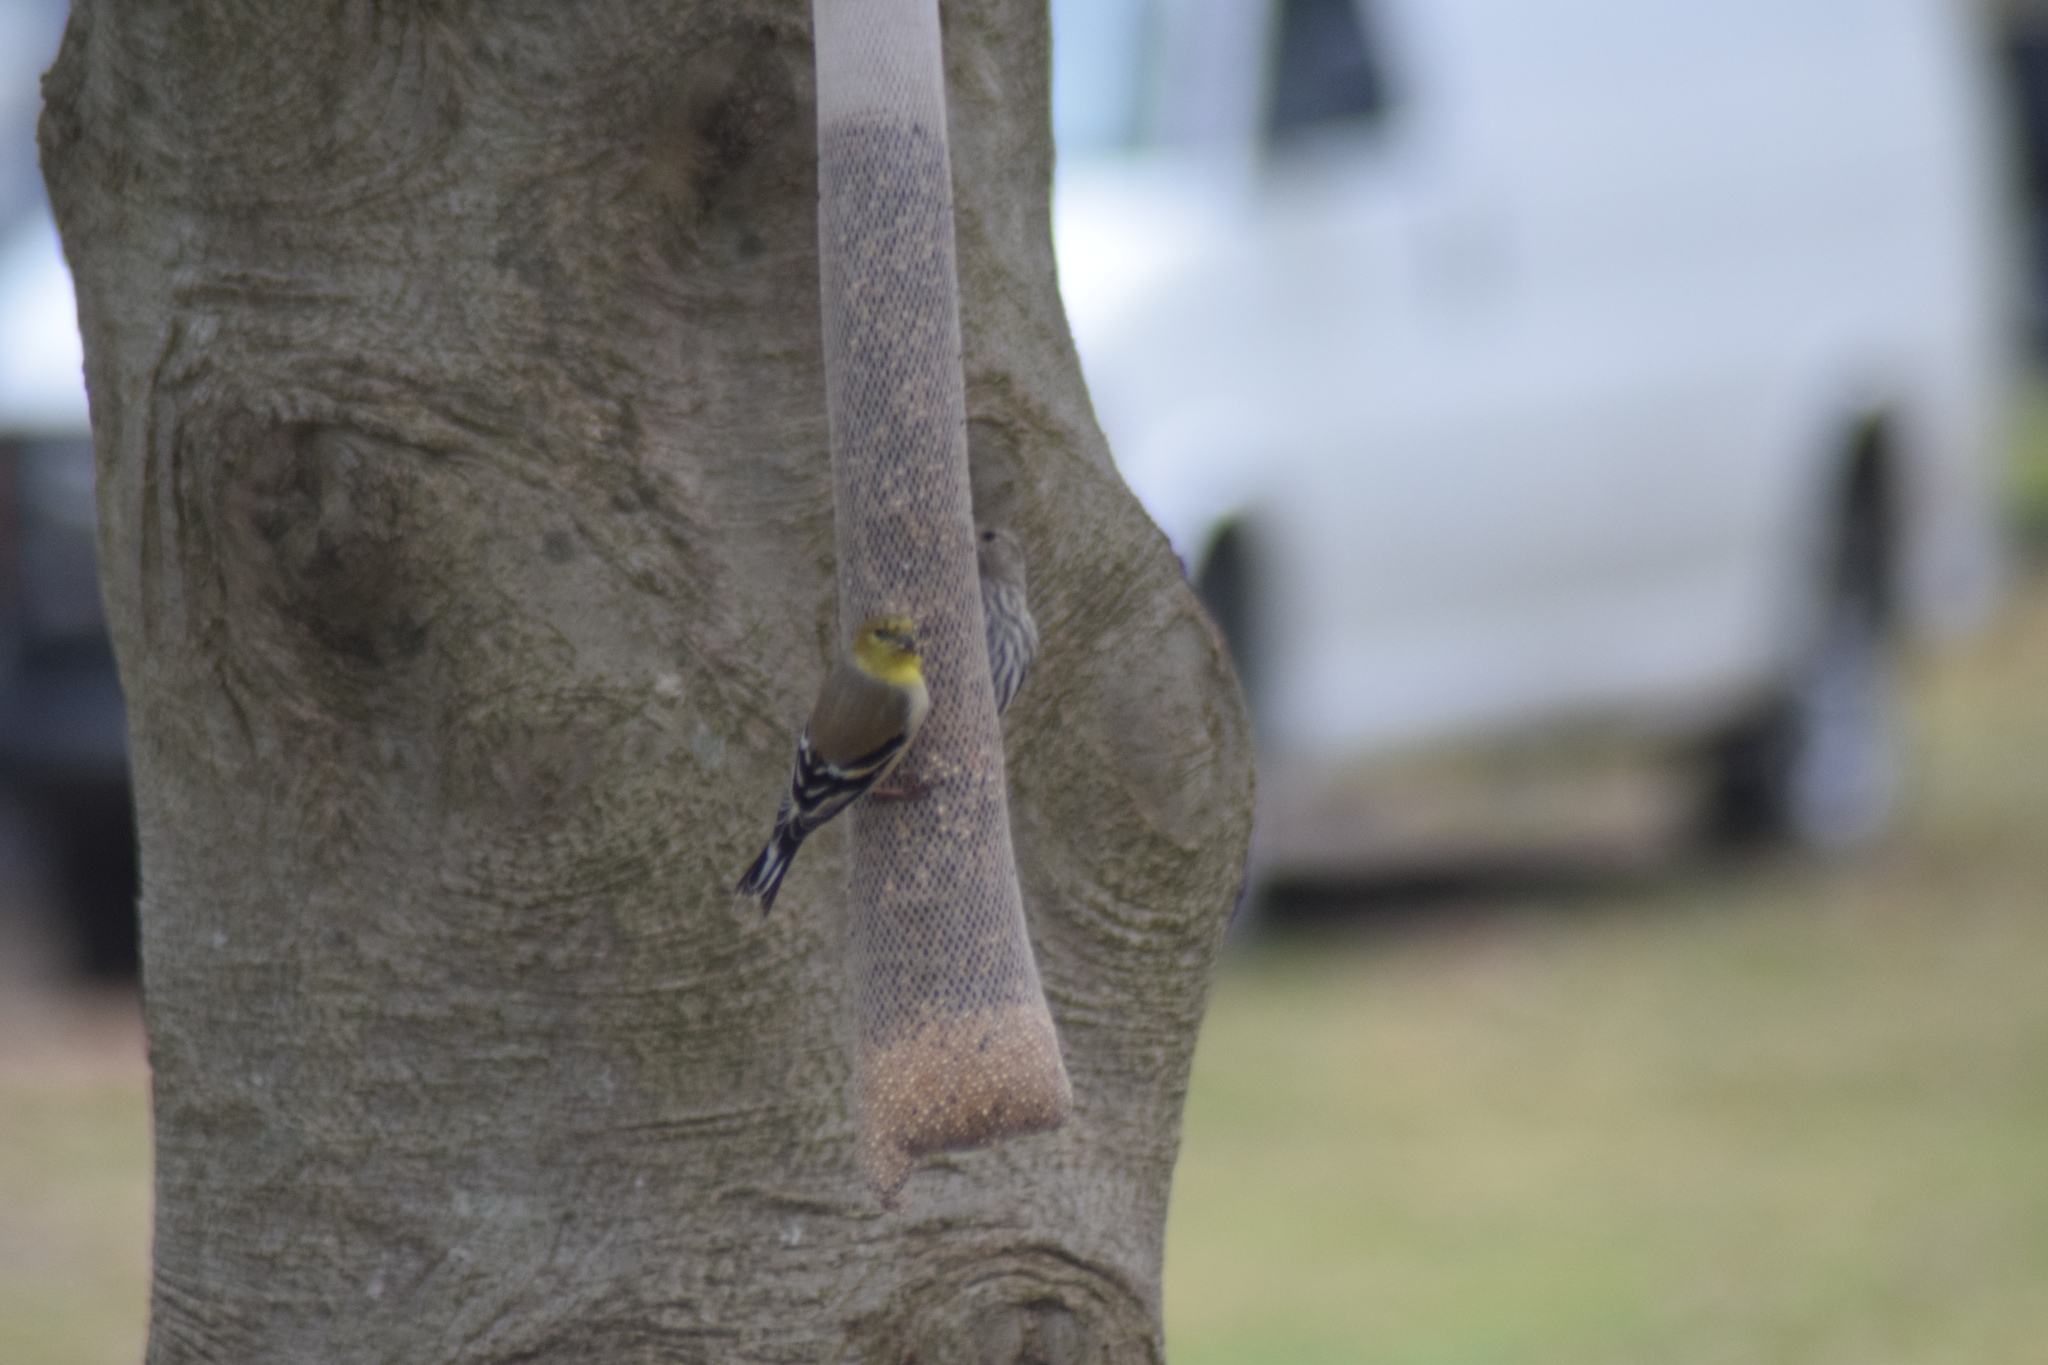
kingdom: Animalia
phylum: Chordata
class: Aves
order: Passeriformes
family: Fringillidae
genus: Spinus
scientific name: Spinus tristis
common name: American goldfinch
